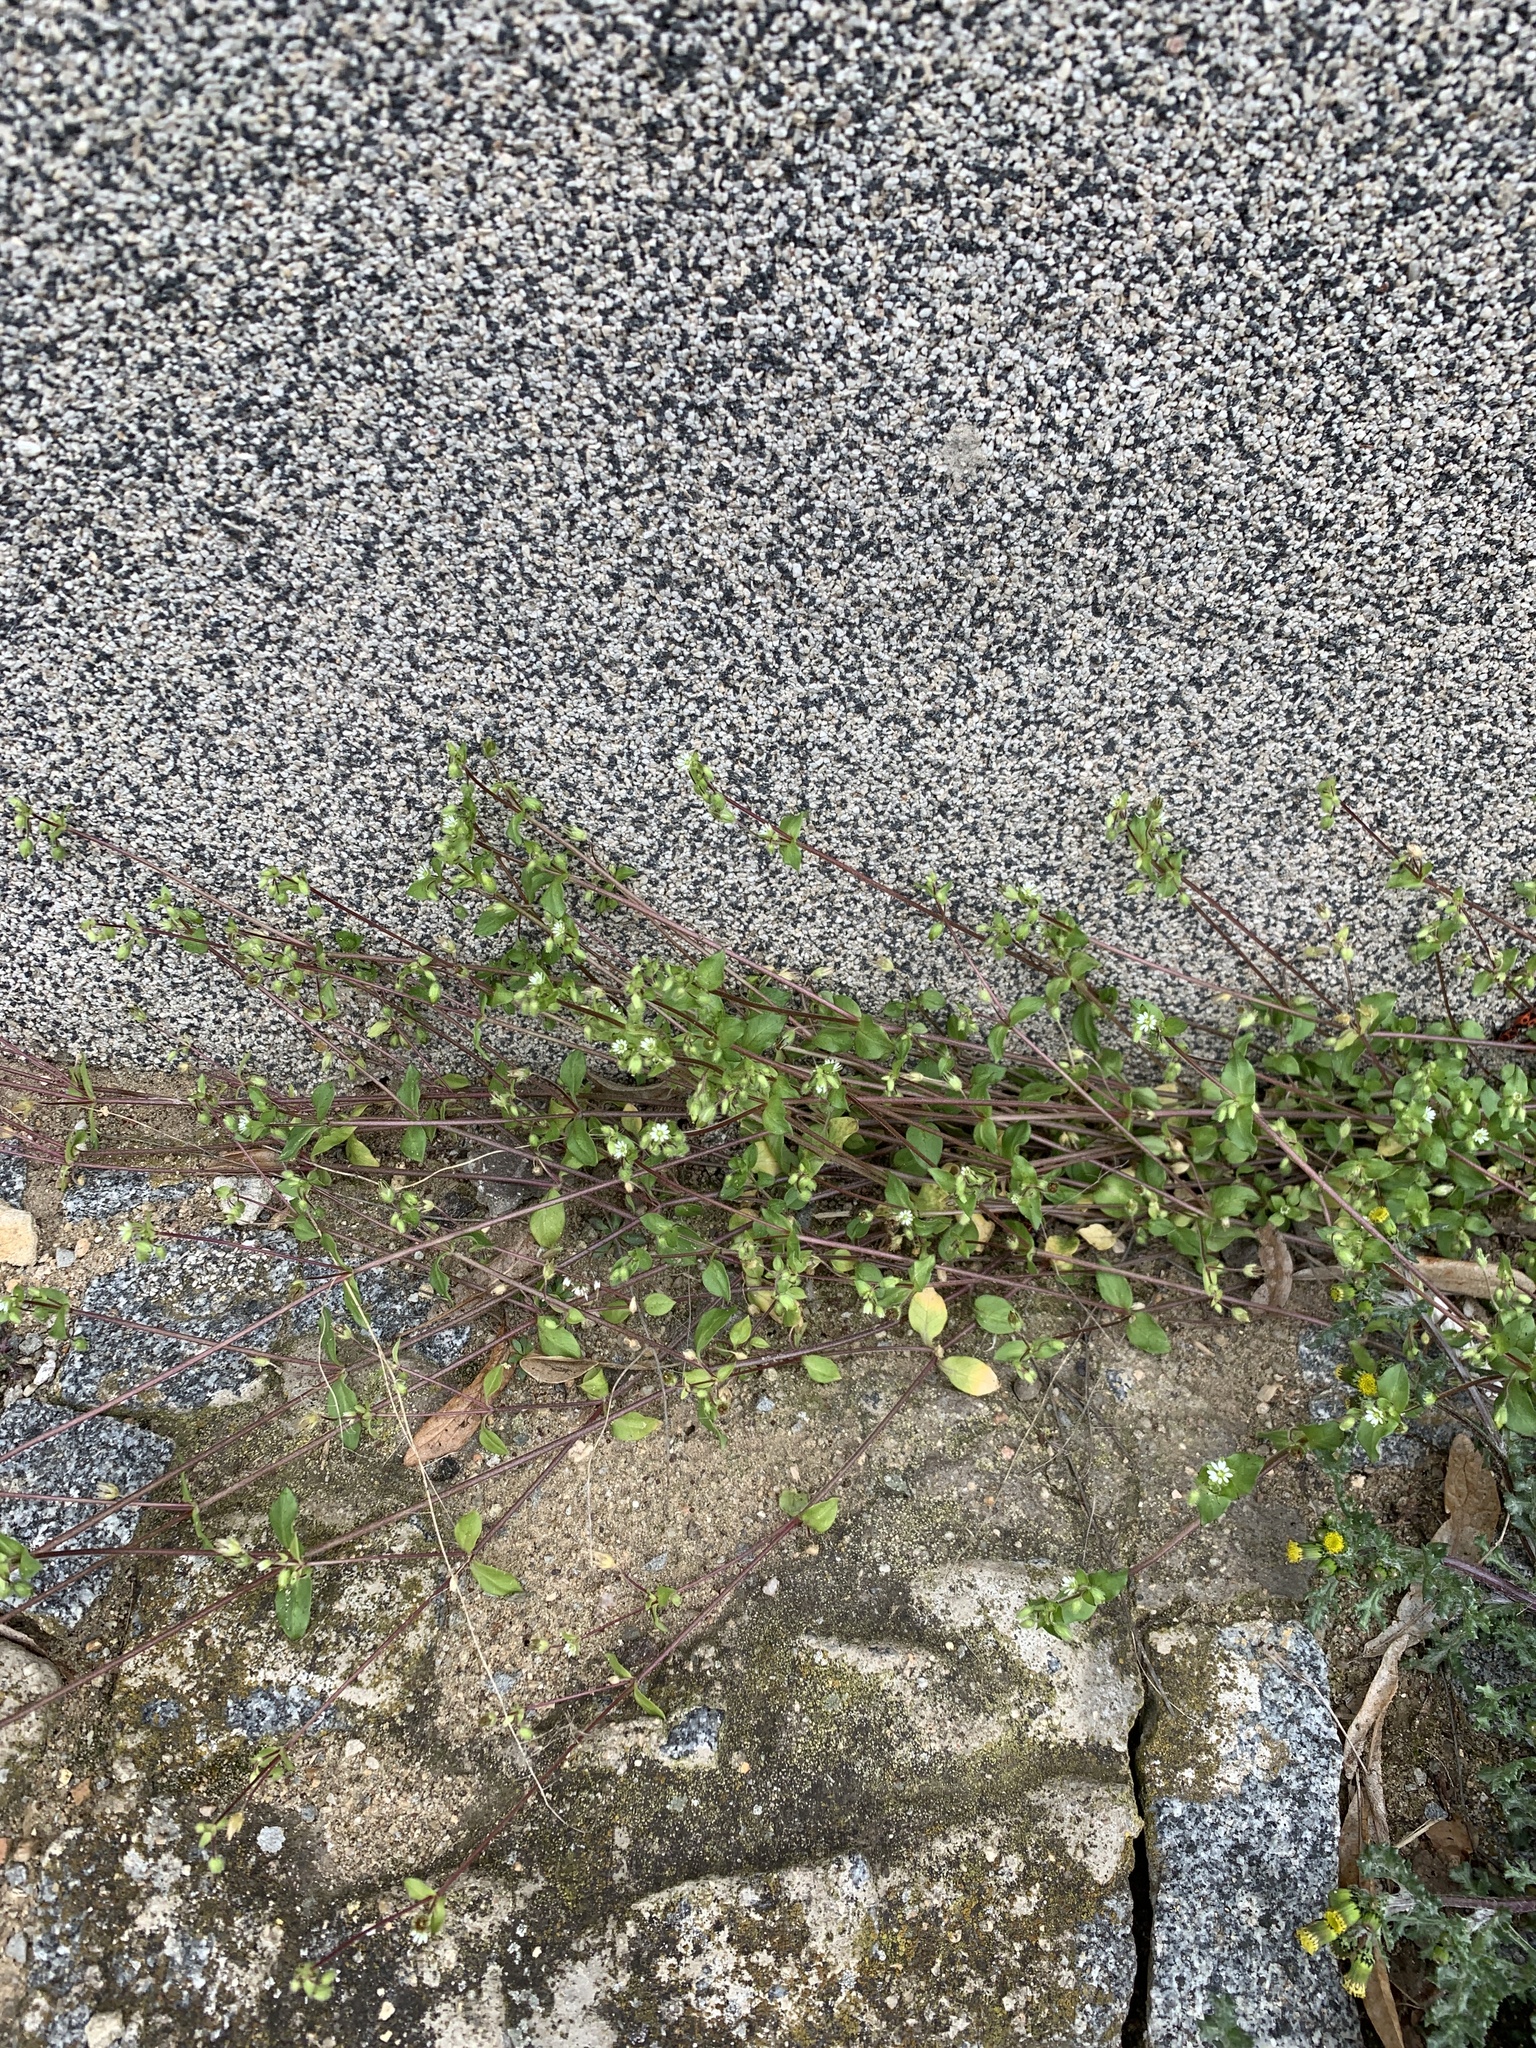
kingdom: Plantae
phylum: Tracheophyta
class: Magnoliopsida
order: Caryophyllales
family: Caryophyllaceae
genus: Stellaria
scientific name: Stellaria media
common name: Common chickweed
